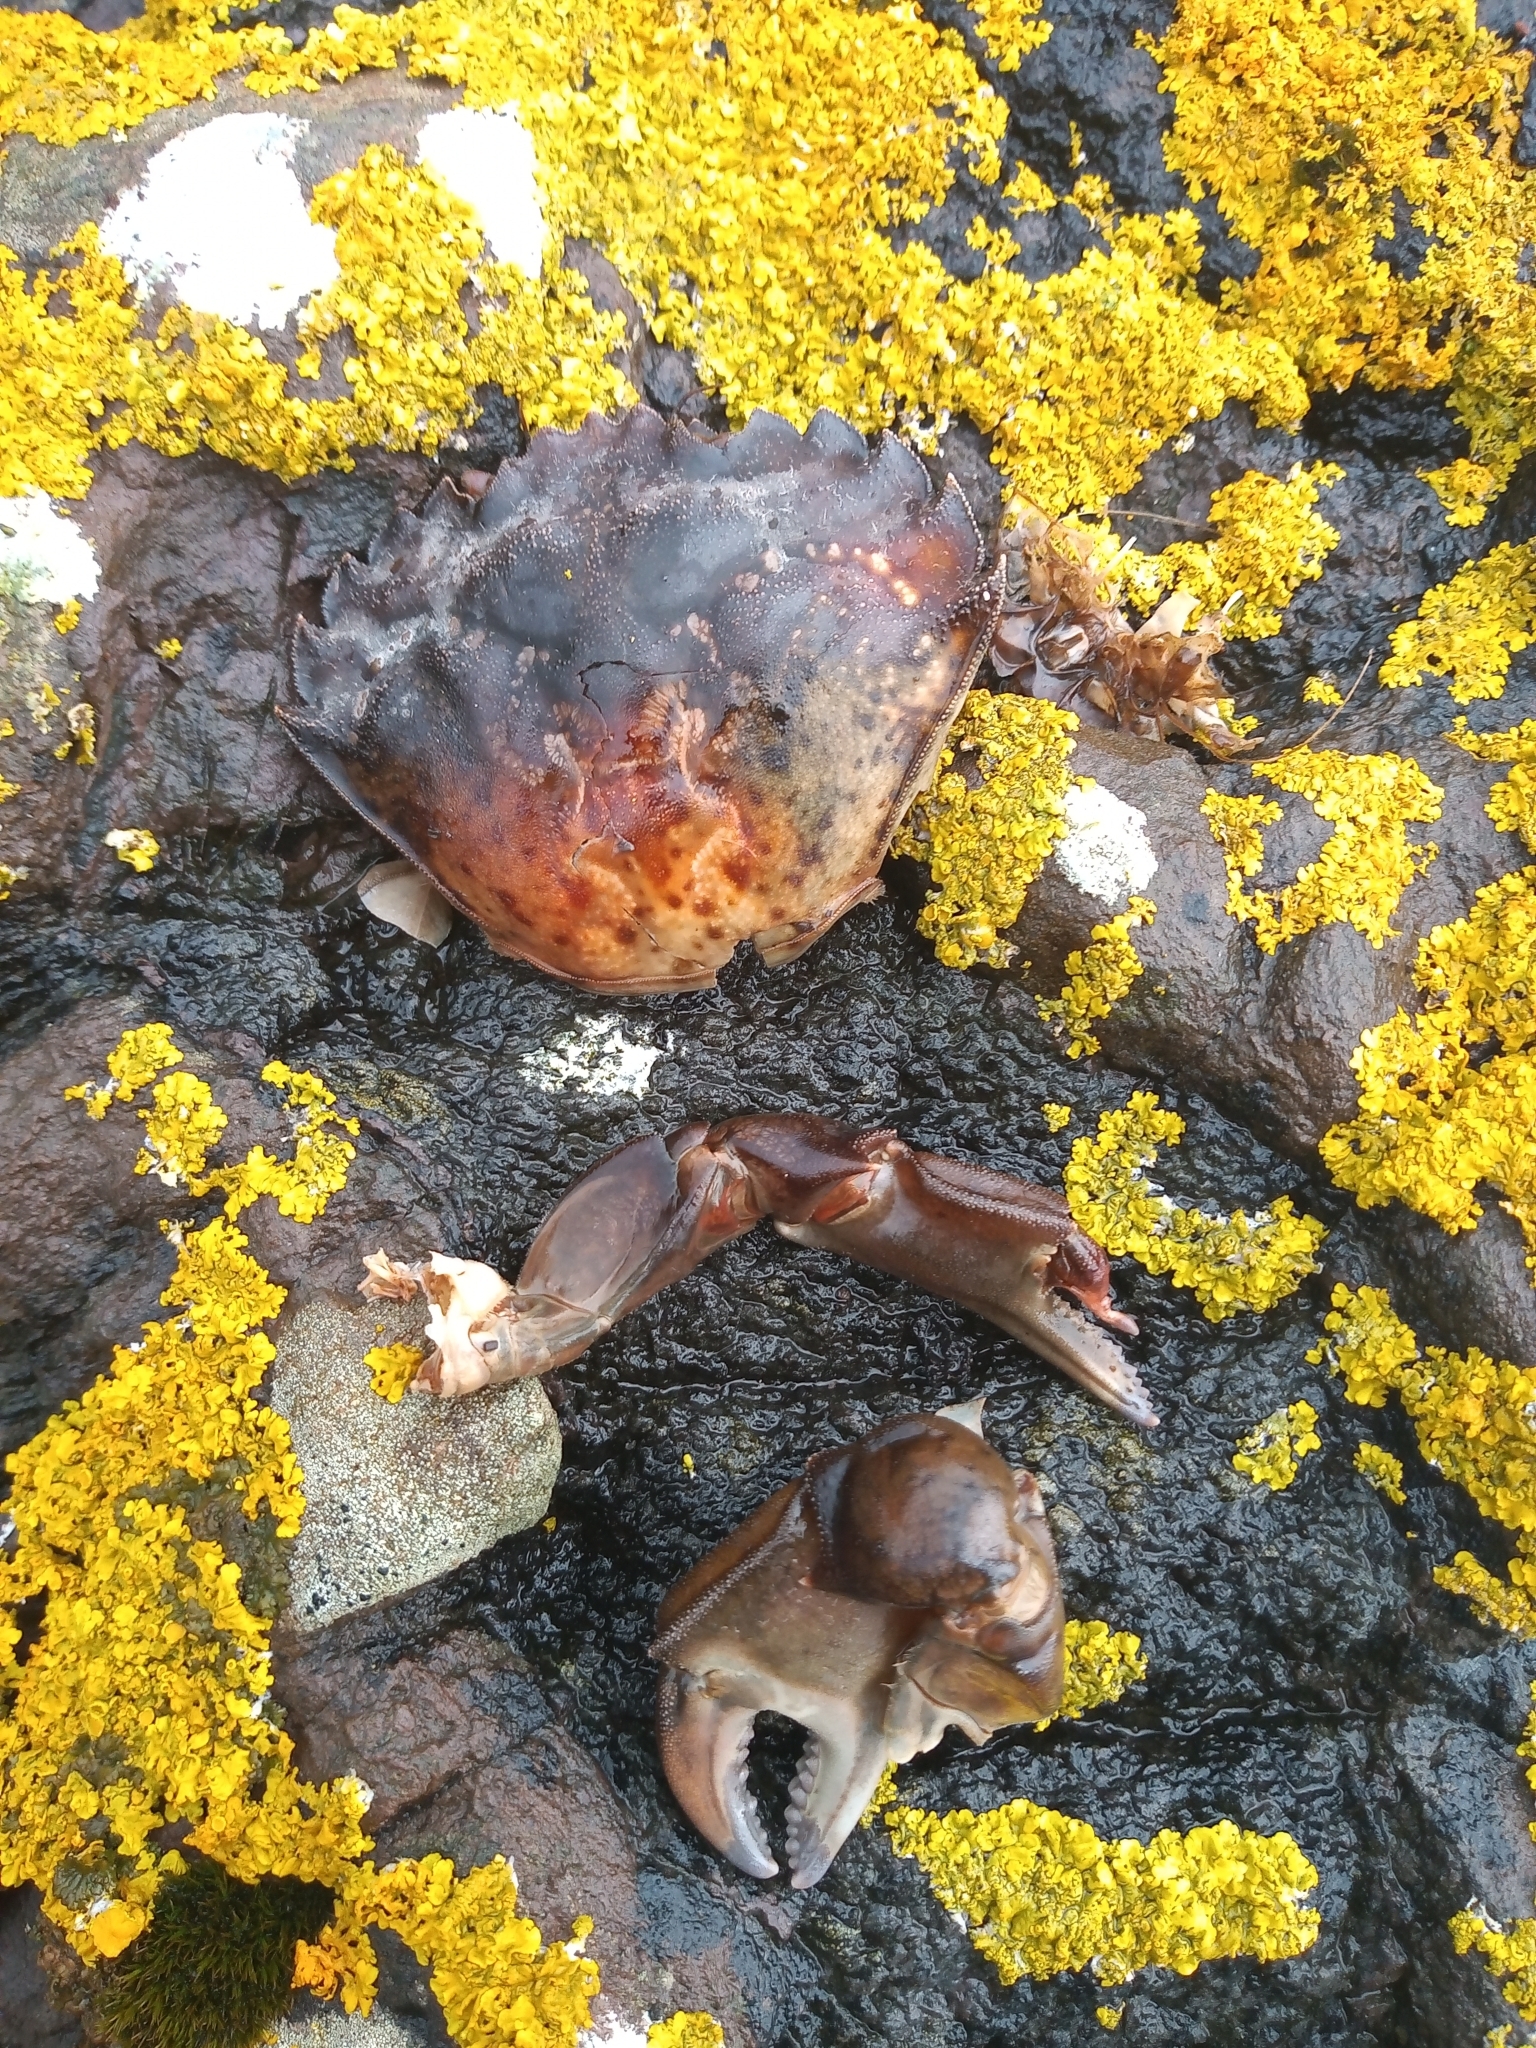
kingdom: Animalia
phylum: Arthropoda
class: Malacostraca
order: Decapoda
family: Carcinidae
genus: Carcinus
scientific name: Carcinus maenas
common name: European green crab
